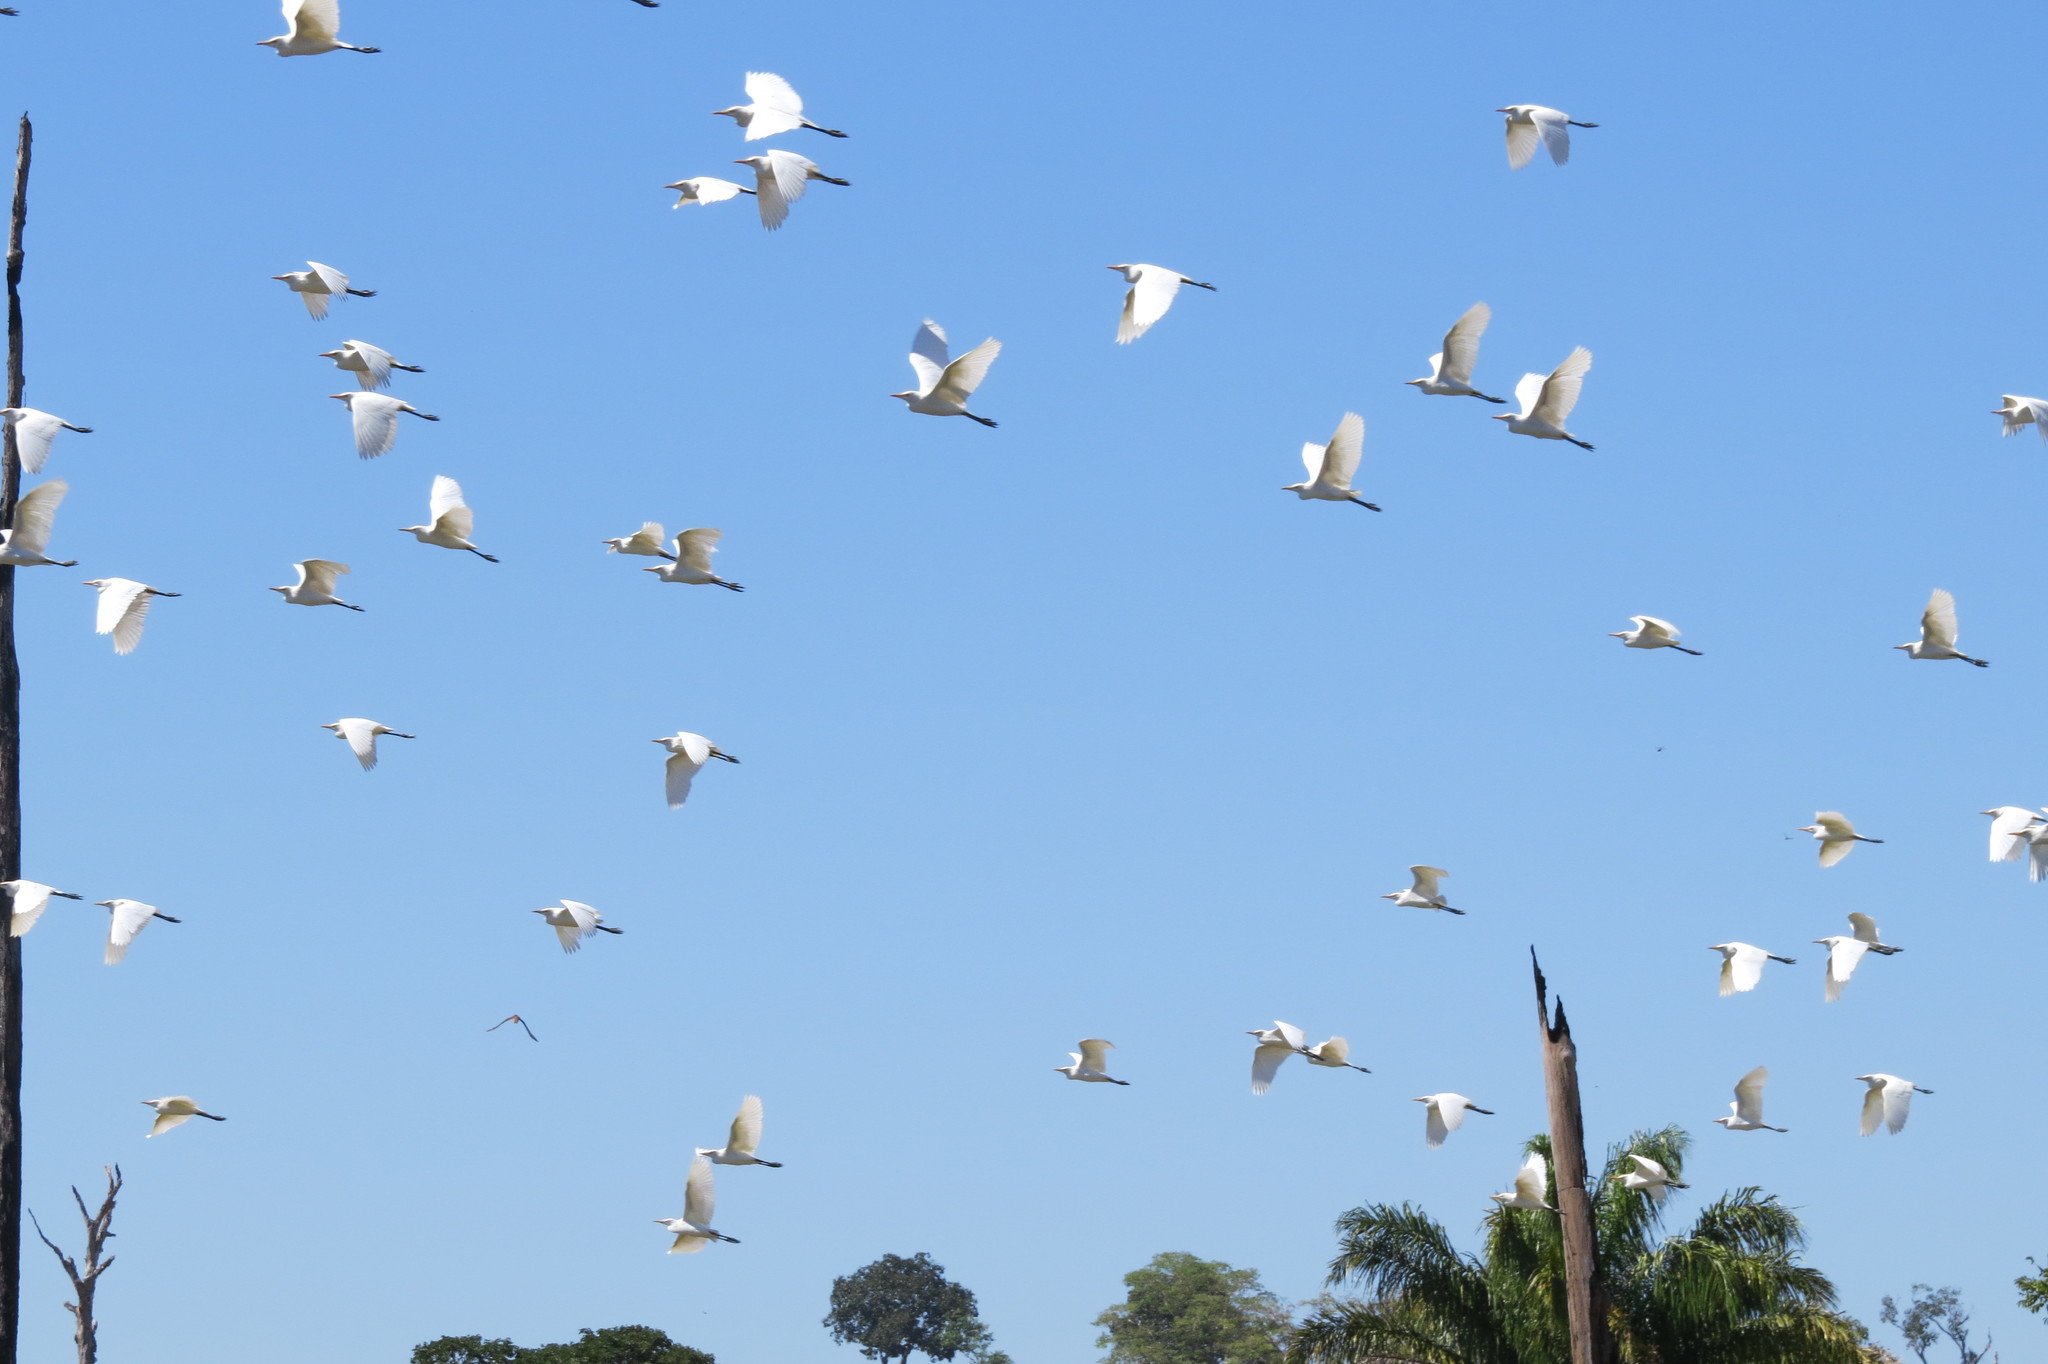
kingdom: Animalia
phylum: Chordata
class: Aves
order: Pelecaniformes
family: Ardeidae
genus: Bubulcus
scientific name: Bubulcus ibis
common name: Cattle egret
